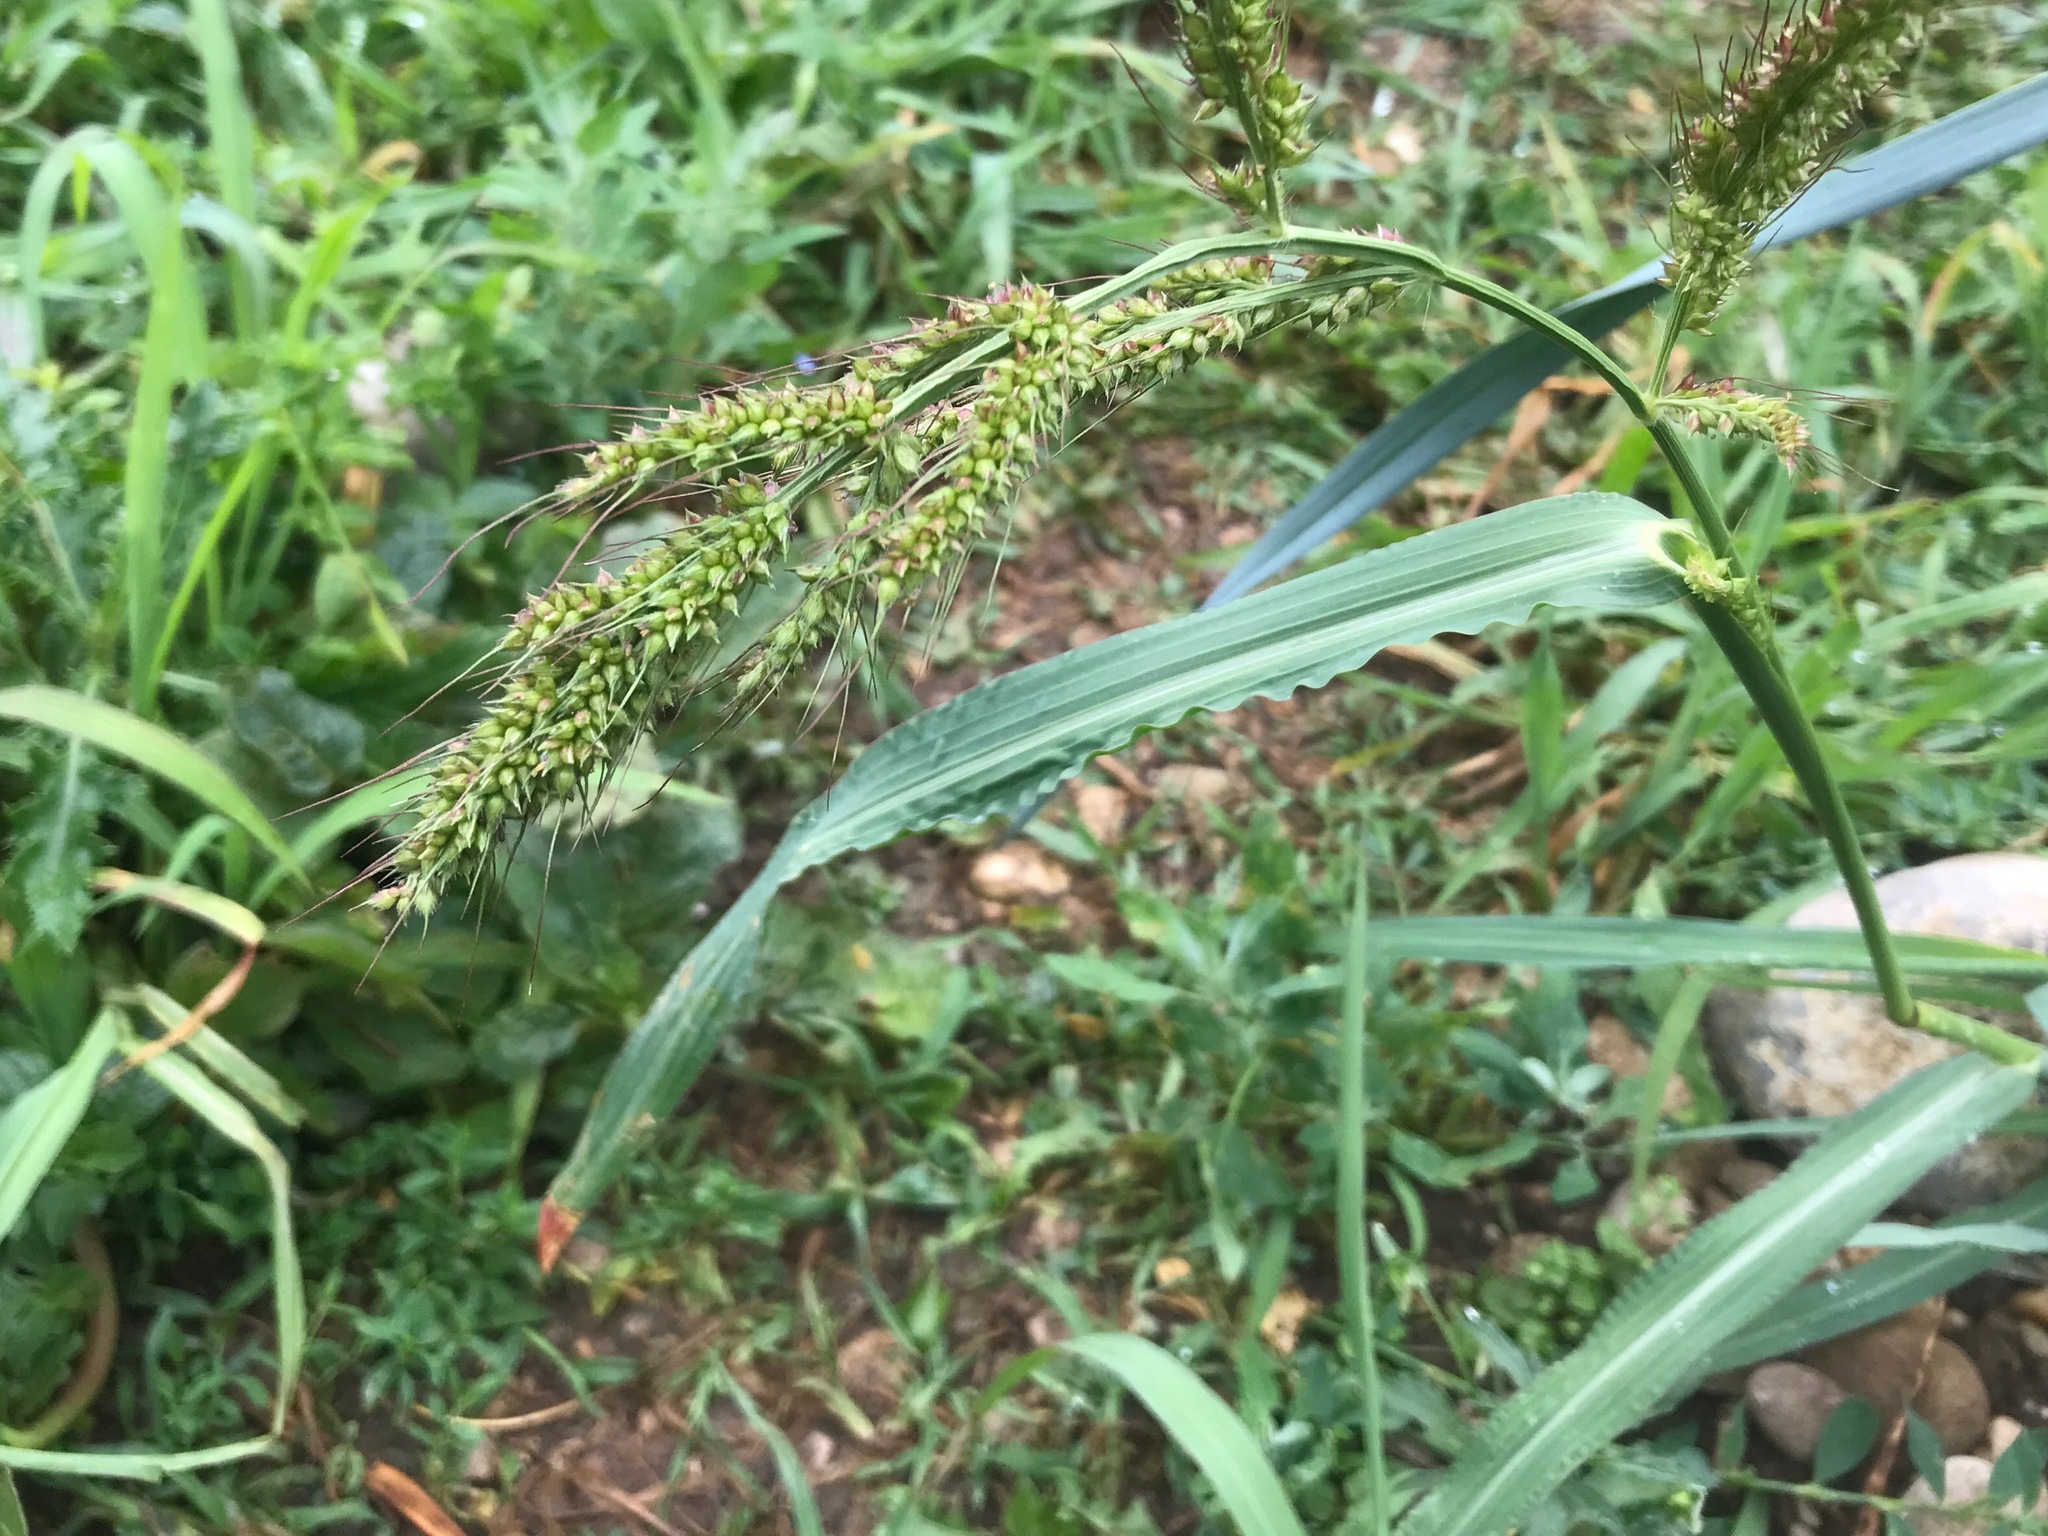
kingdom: Plantae
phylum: Tracheophyta
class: Liliopsida
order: Poales
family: Poaceae
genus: Echinochloa
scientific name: Echinochloa crus-galli
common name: Cockspur
